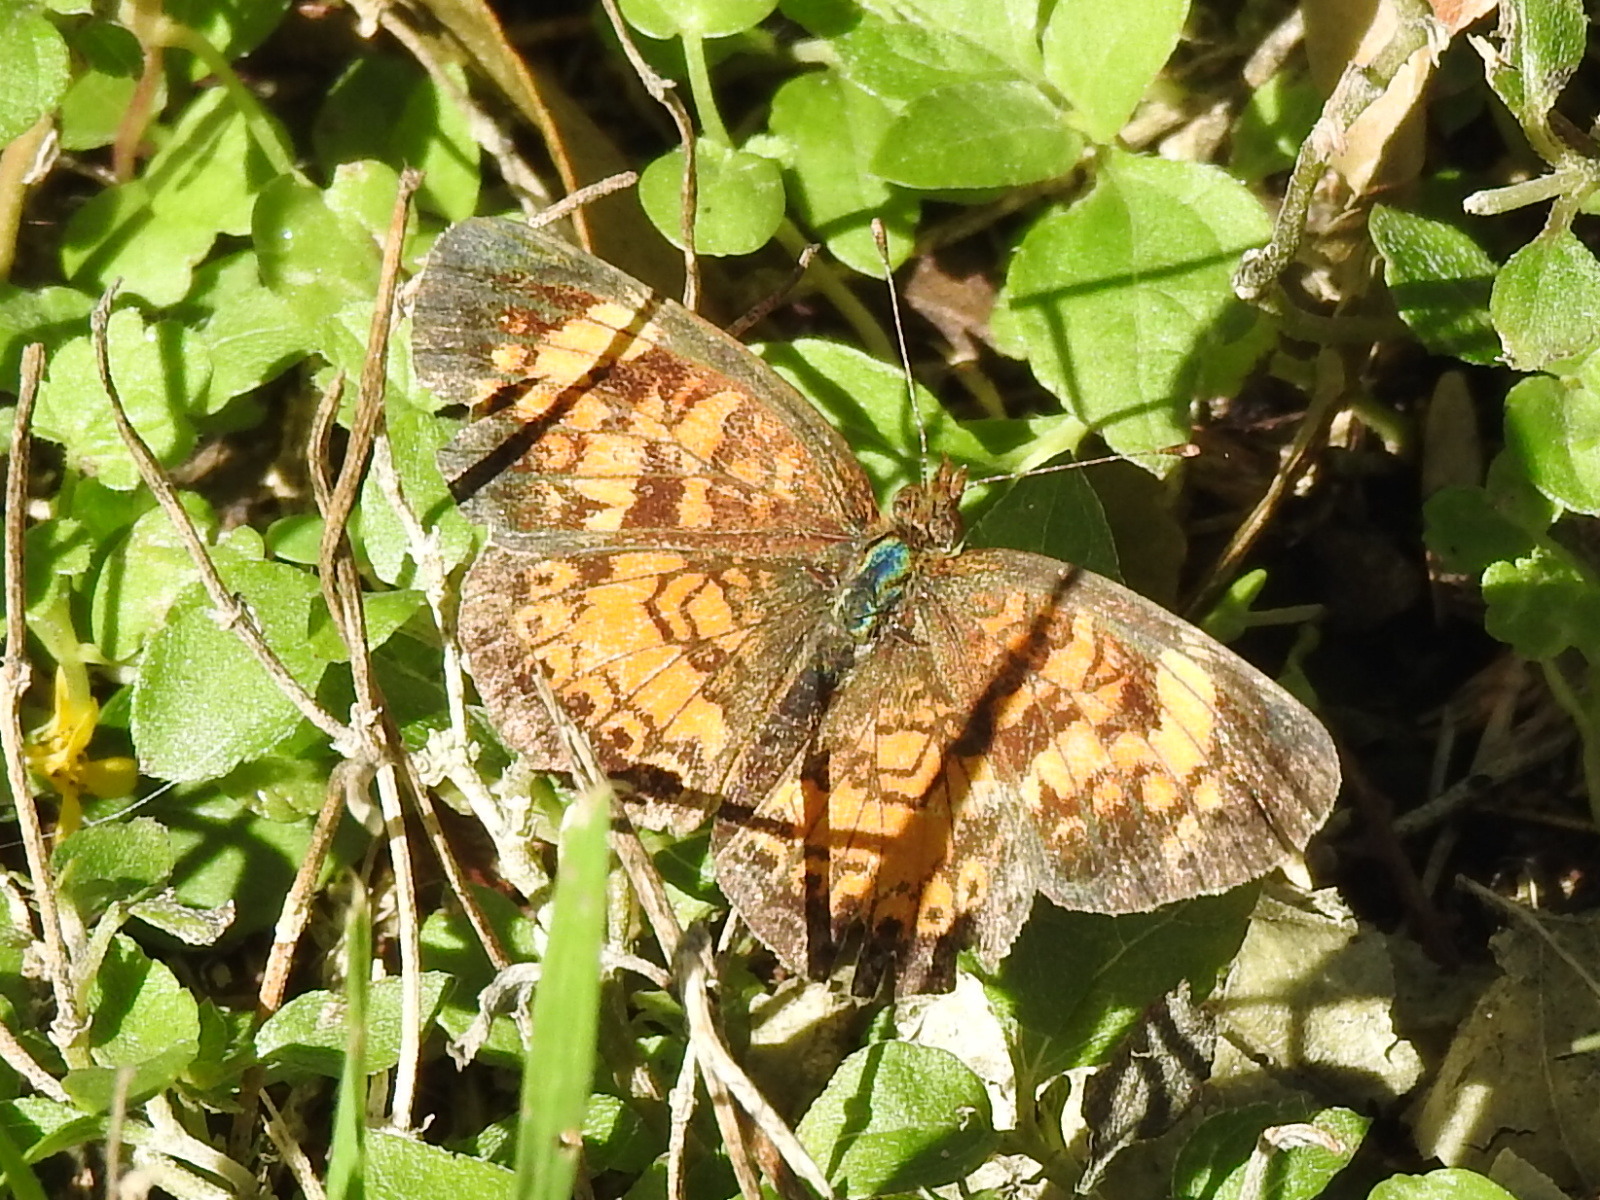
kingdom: Animalia
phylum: Arthropoda
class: Insecta
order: Lepidoptera
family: Nymphalidae
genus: Phyciodes
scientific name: Phyciodes tharos
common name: Pearl crescent
